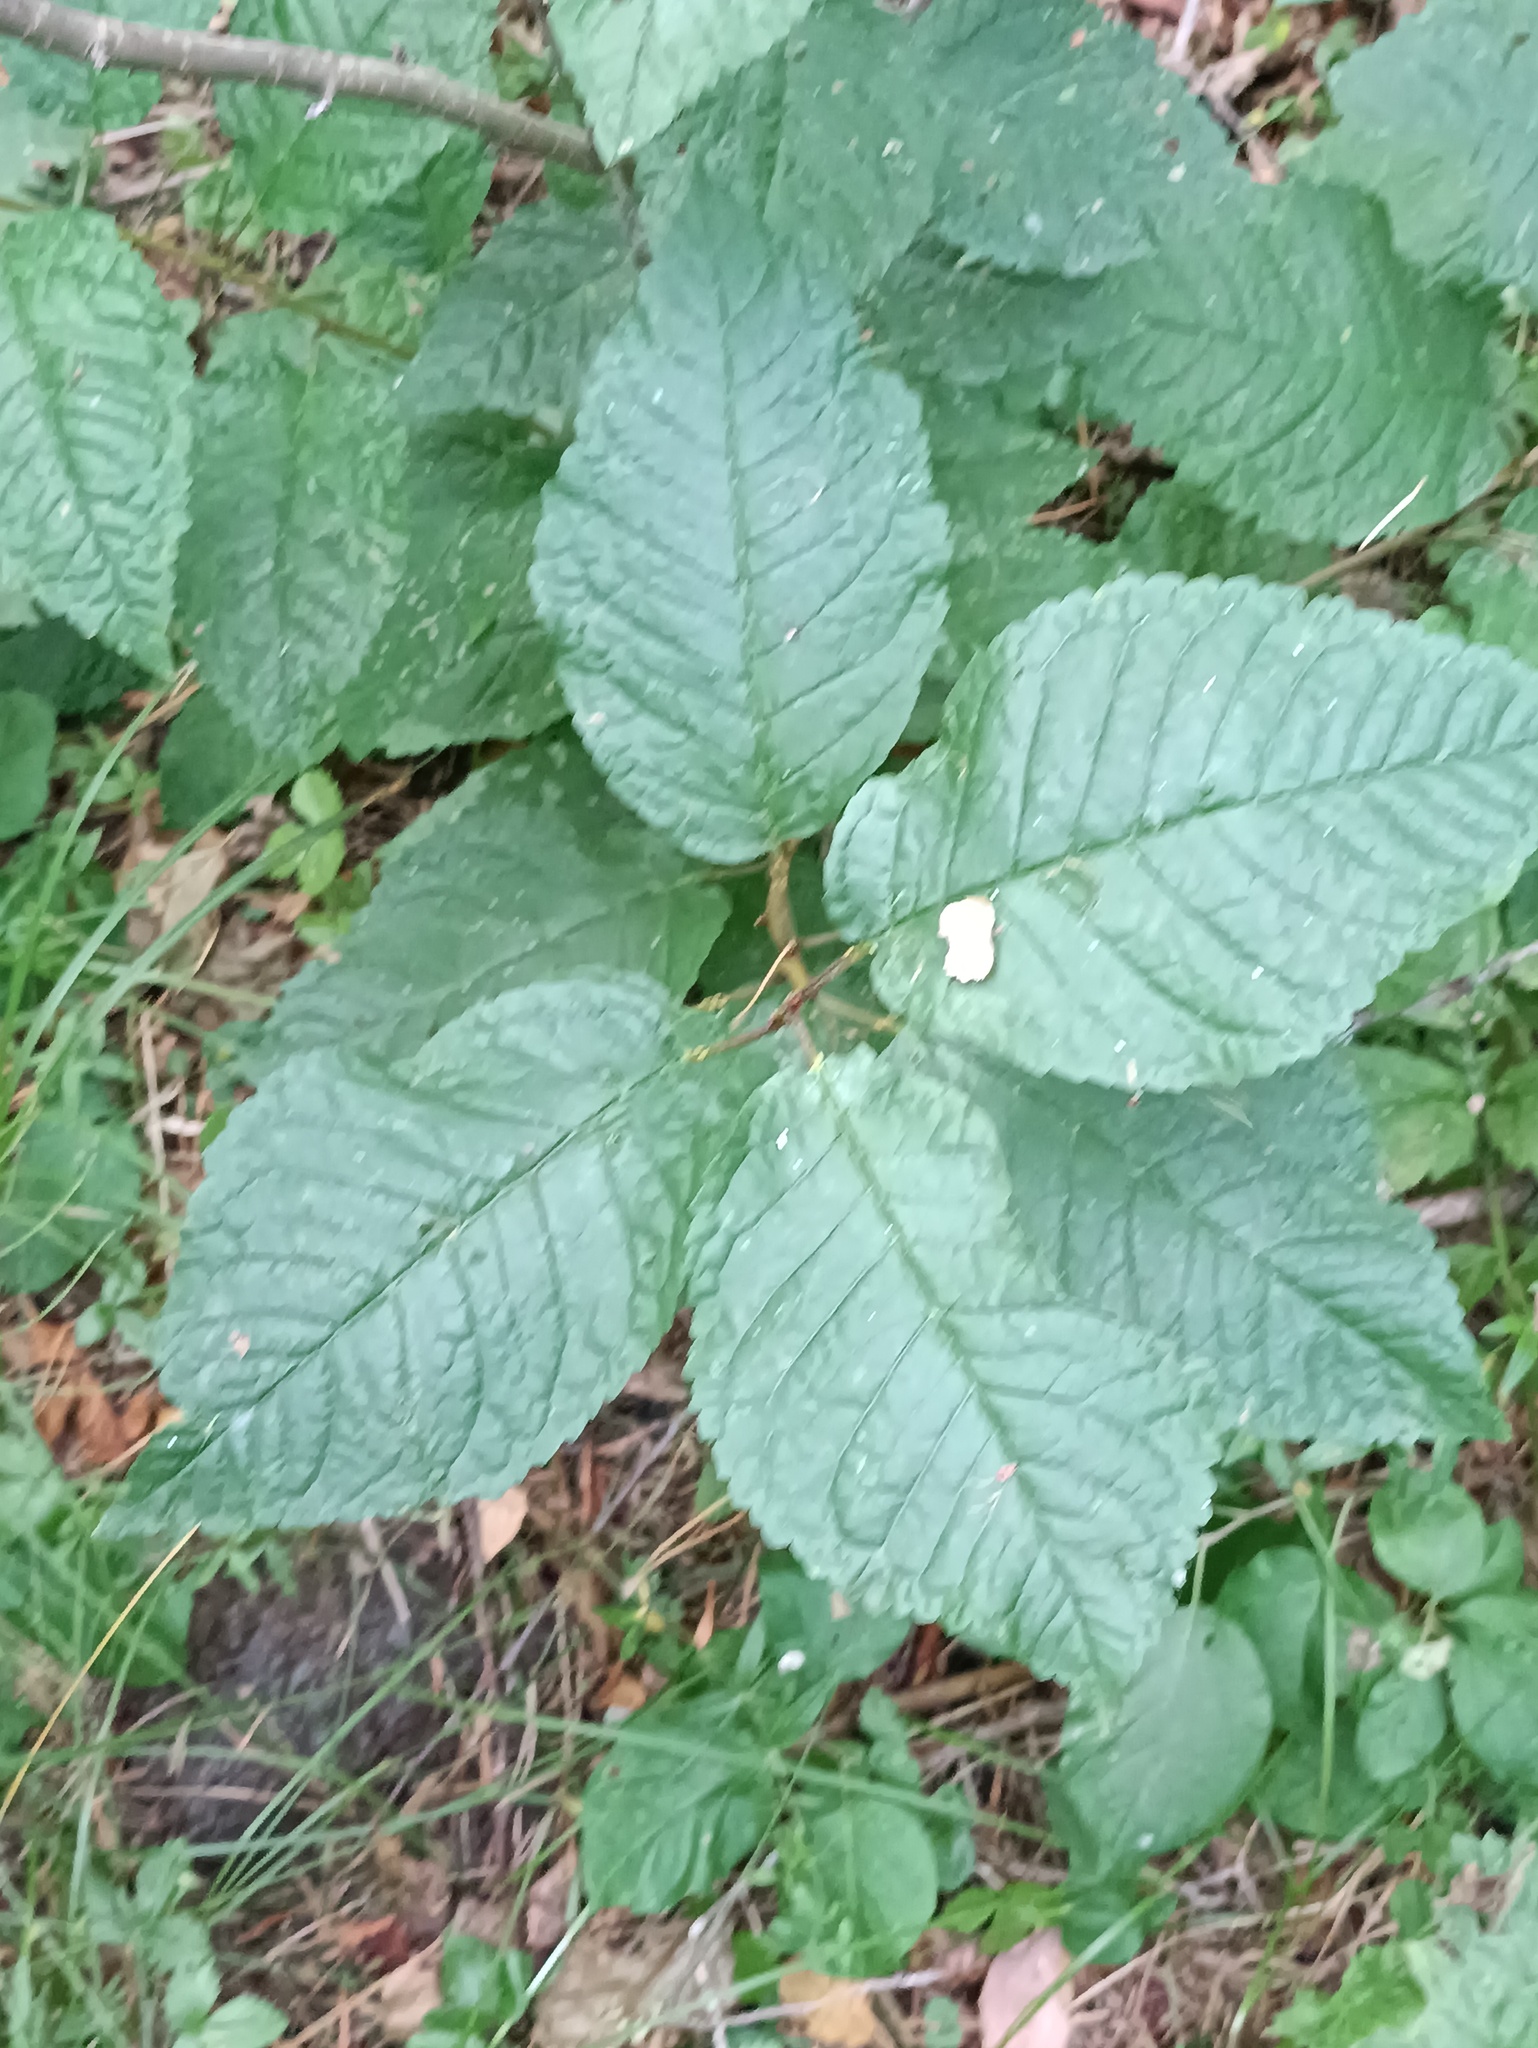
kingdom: Plantae
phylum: Tracheophyta
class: Magnoliopsida
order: Rosales
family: Rosaceae
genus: Prunus
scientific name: Prunus padus
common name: Bird cherry
